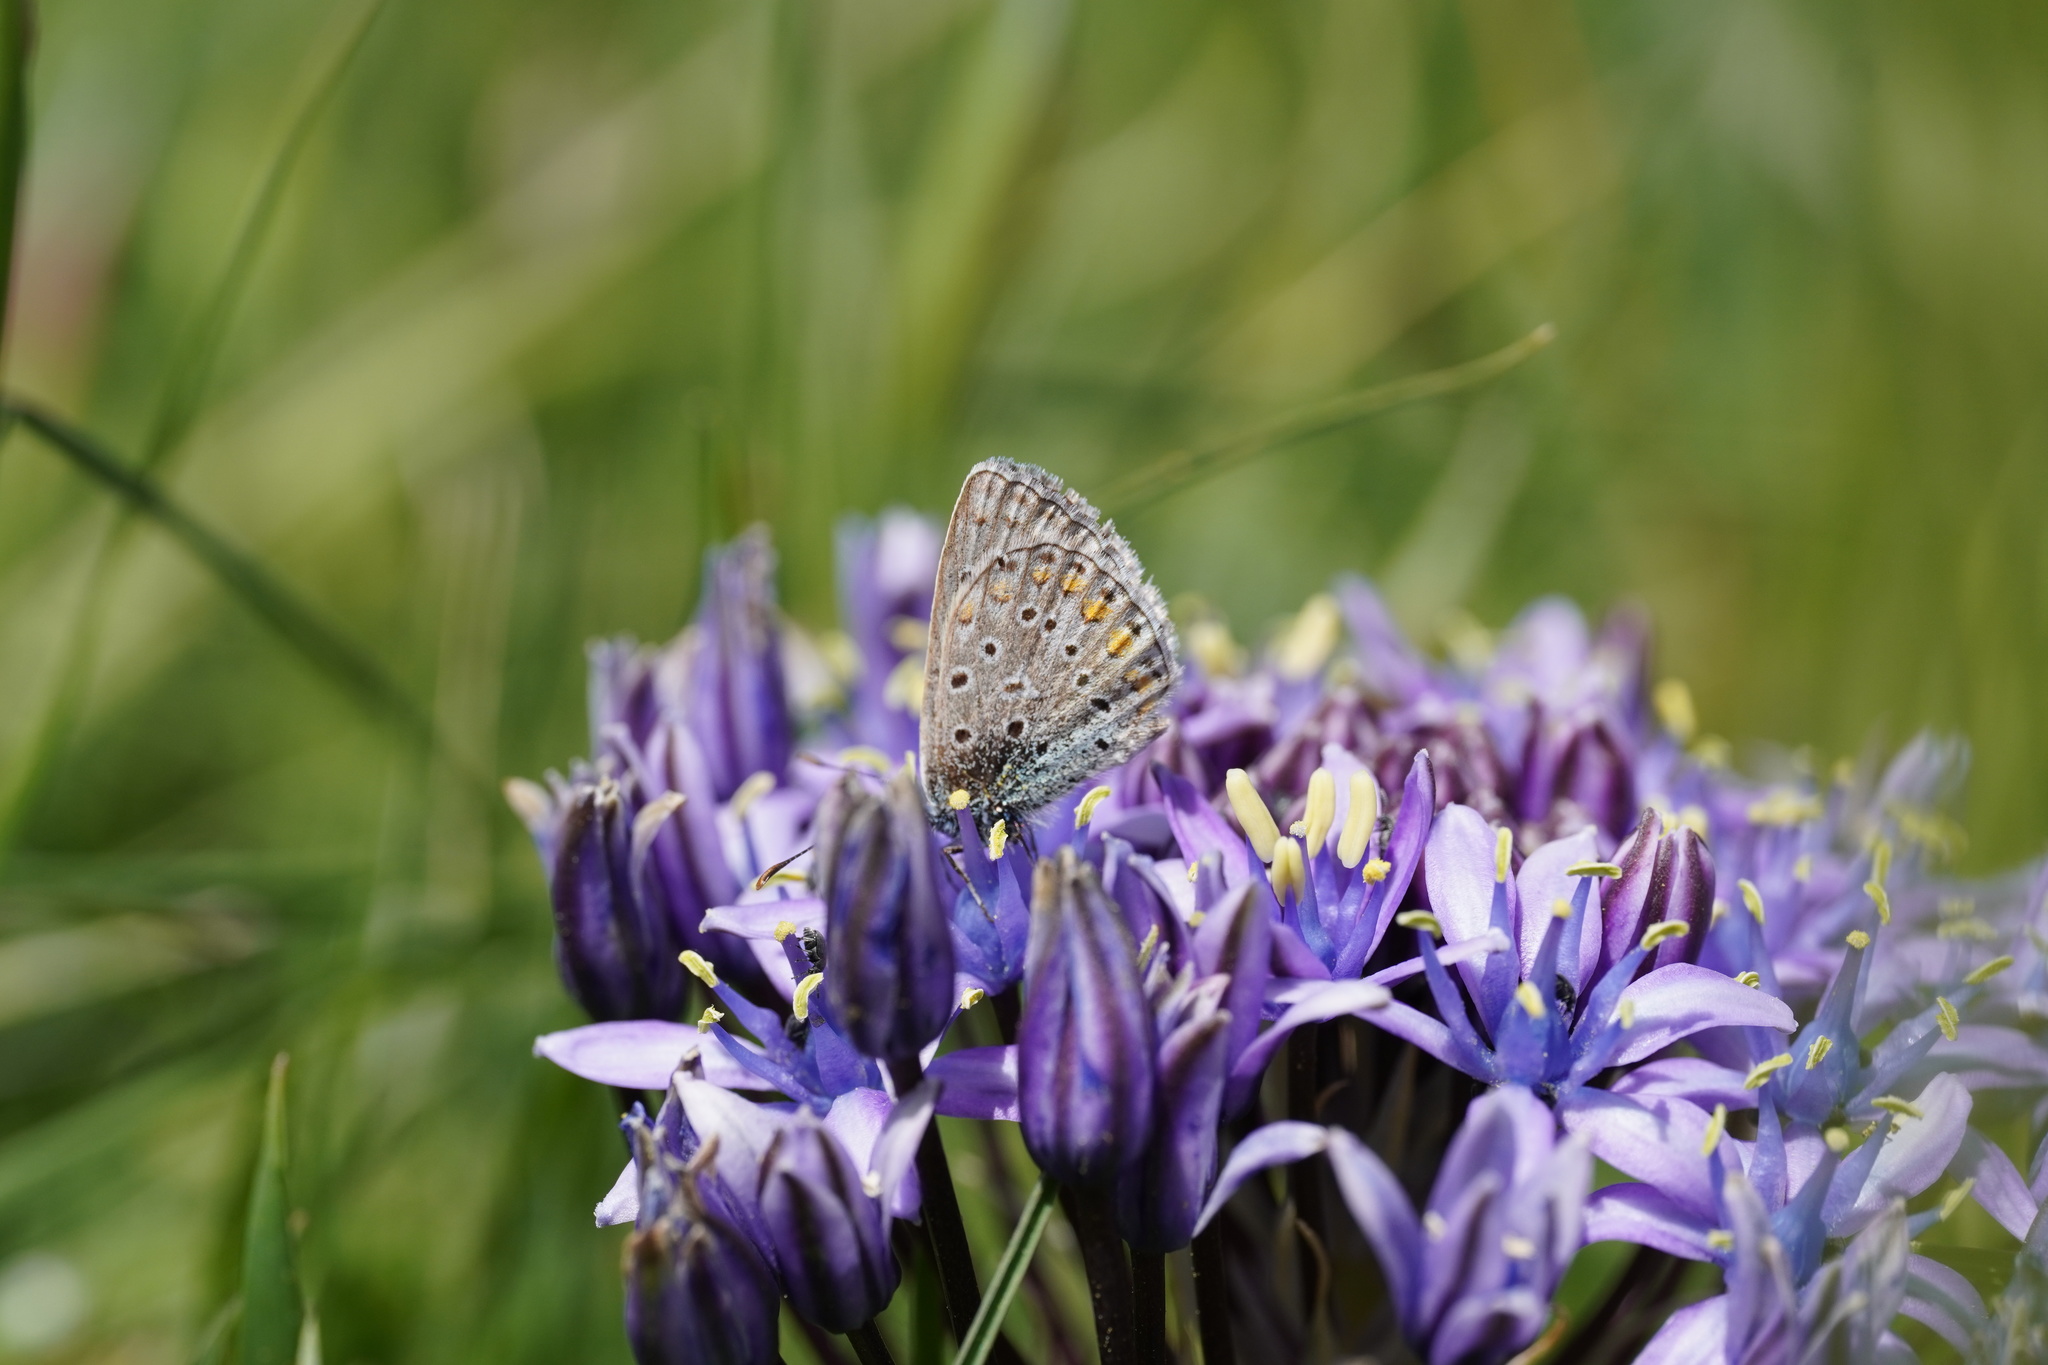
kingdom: Animalia
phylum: Arthropoda
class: Insecta
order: Lepidoptera
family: Lycaenidae
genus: Polyommatus
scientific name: Polyommatus celina
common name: Austaut's blue
